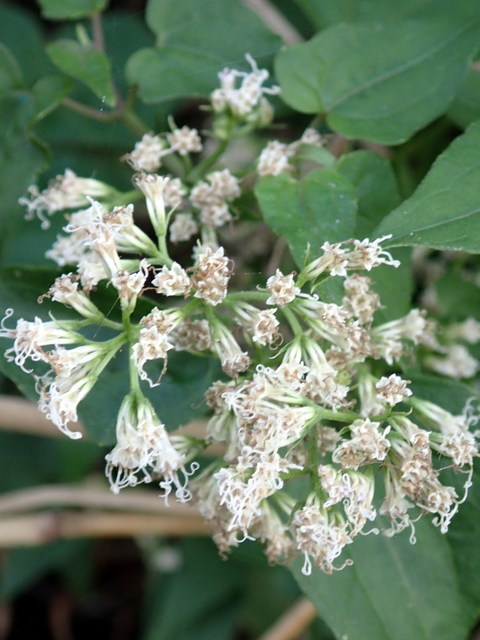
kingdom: Plantae
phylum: Tracheophyta
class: Magnoliopsida
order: Asterales
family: Asteraceae
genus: Mikania
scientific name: Mikania scandens
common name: Climbing hempvine
